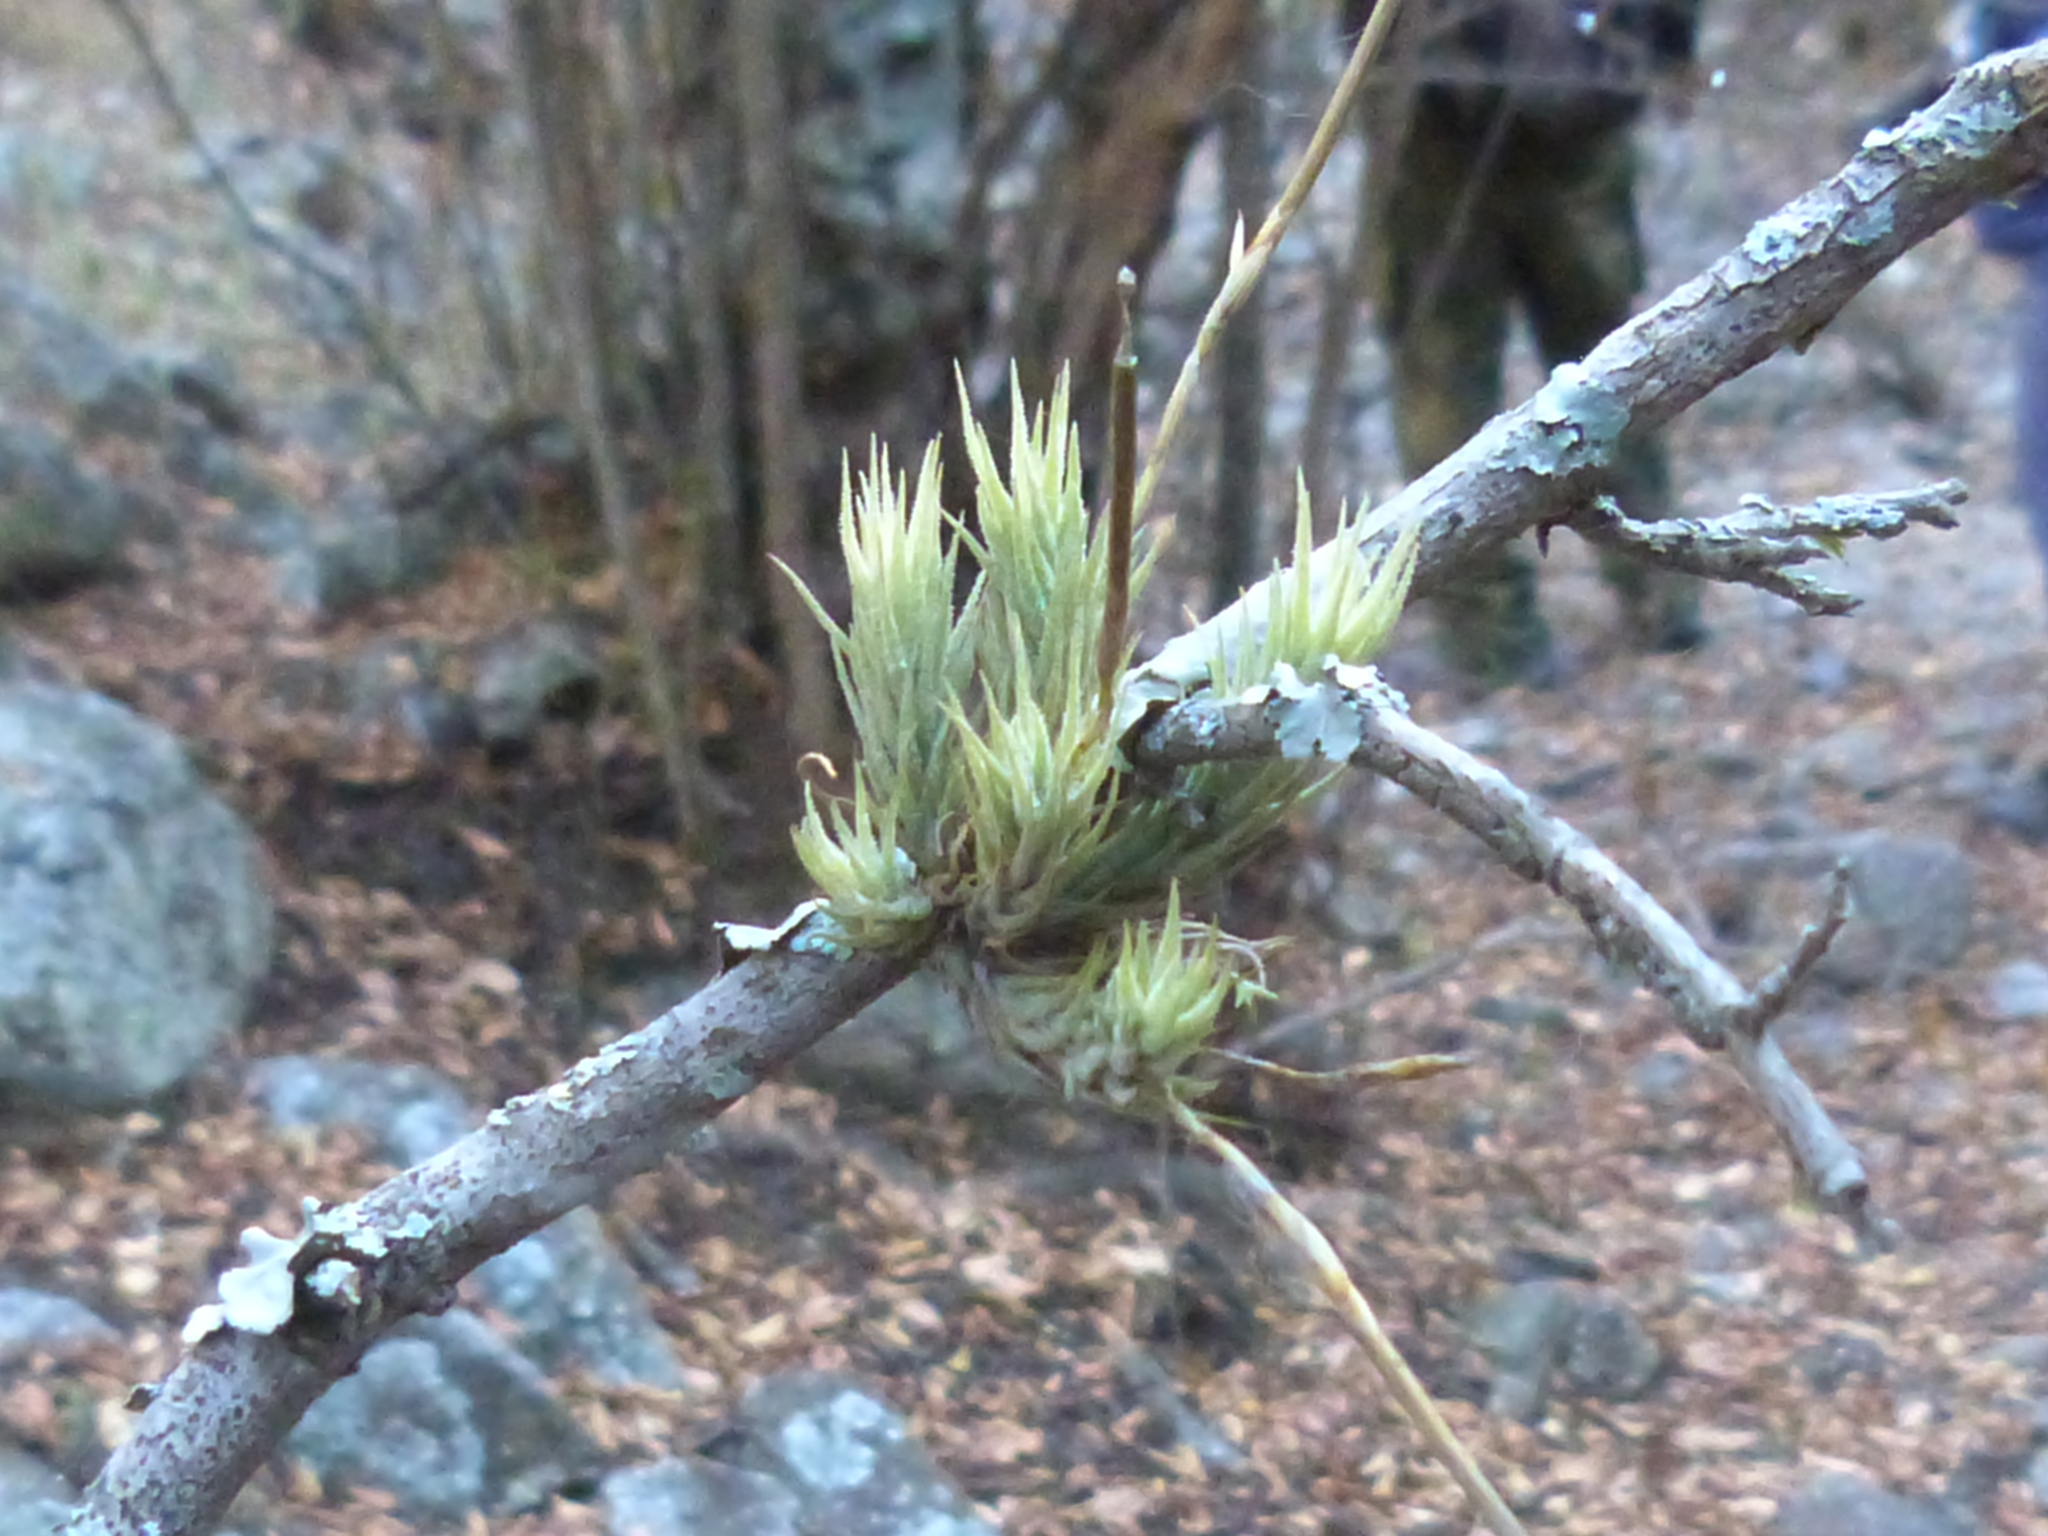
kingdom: Plantae
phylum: Tracheophyta
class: Liliopsida
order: Poales
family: Bromeliaceae
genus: Tillandsia
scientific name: Tillandsia tricholepis
